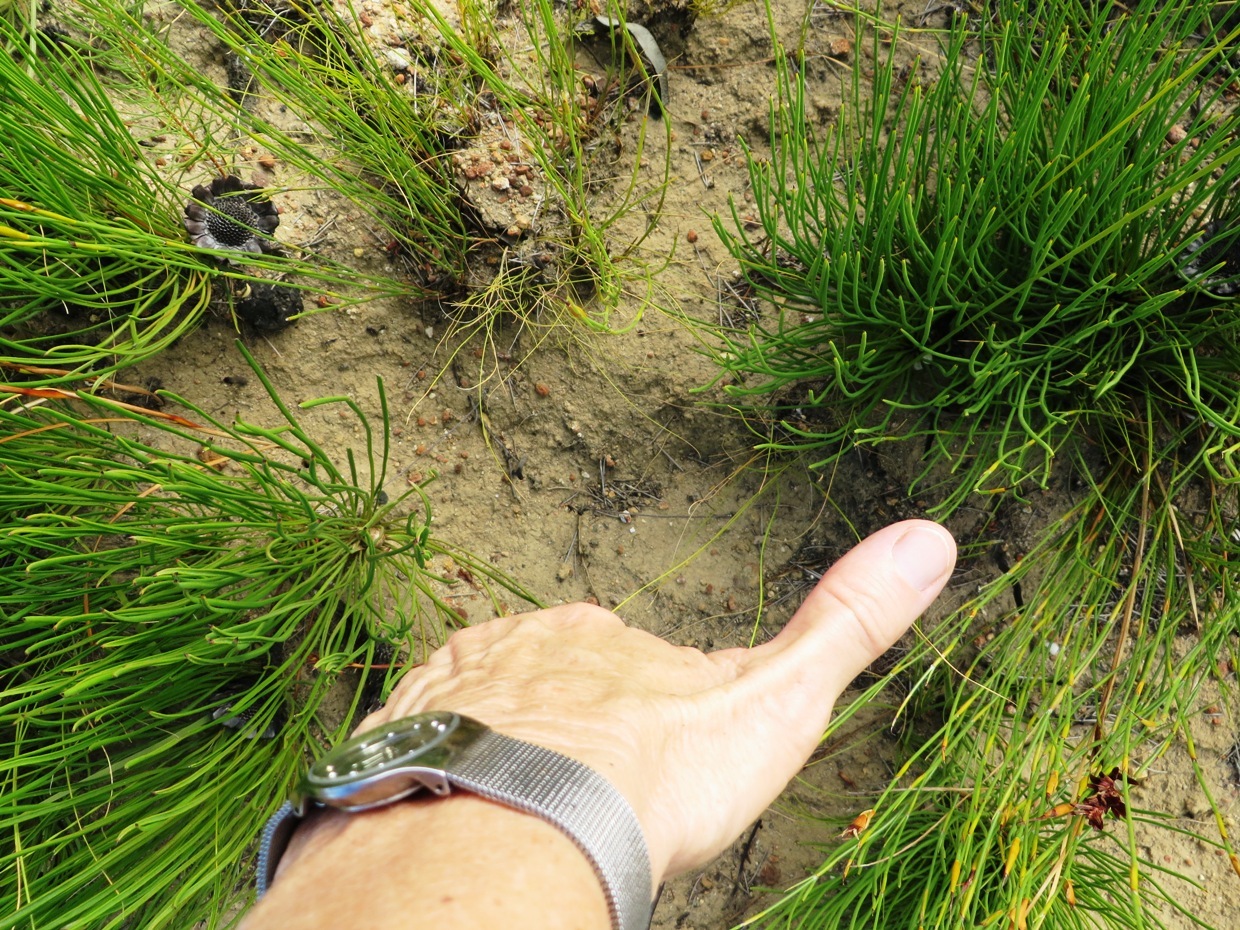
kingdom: Plantae
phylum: Tracheophyta
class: Magnoliopsida
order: Proteales
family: Proteaceae
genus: Protea
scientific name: Protea lorea
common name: Thong-leaf sugarbush
